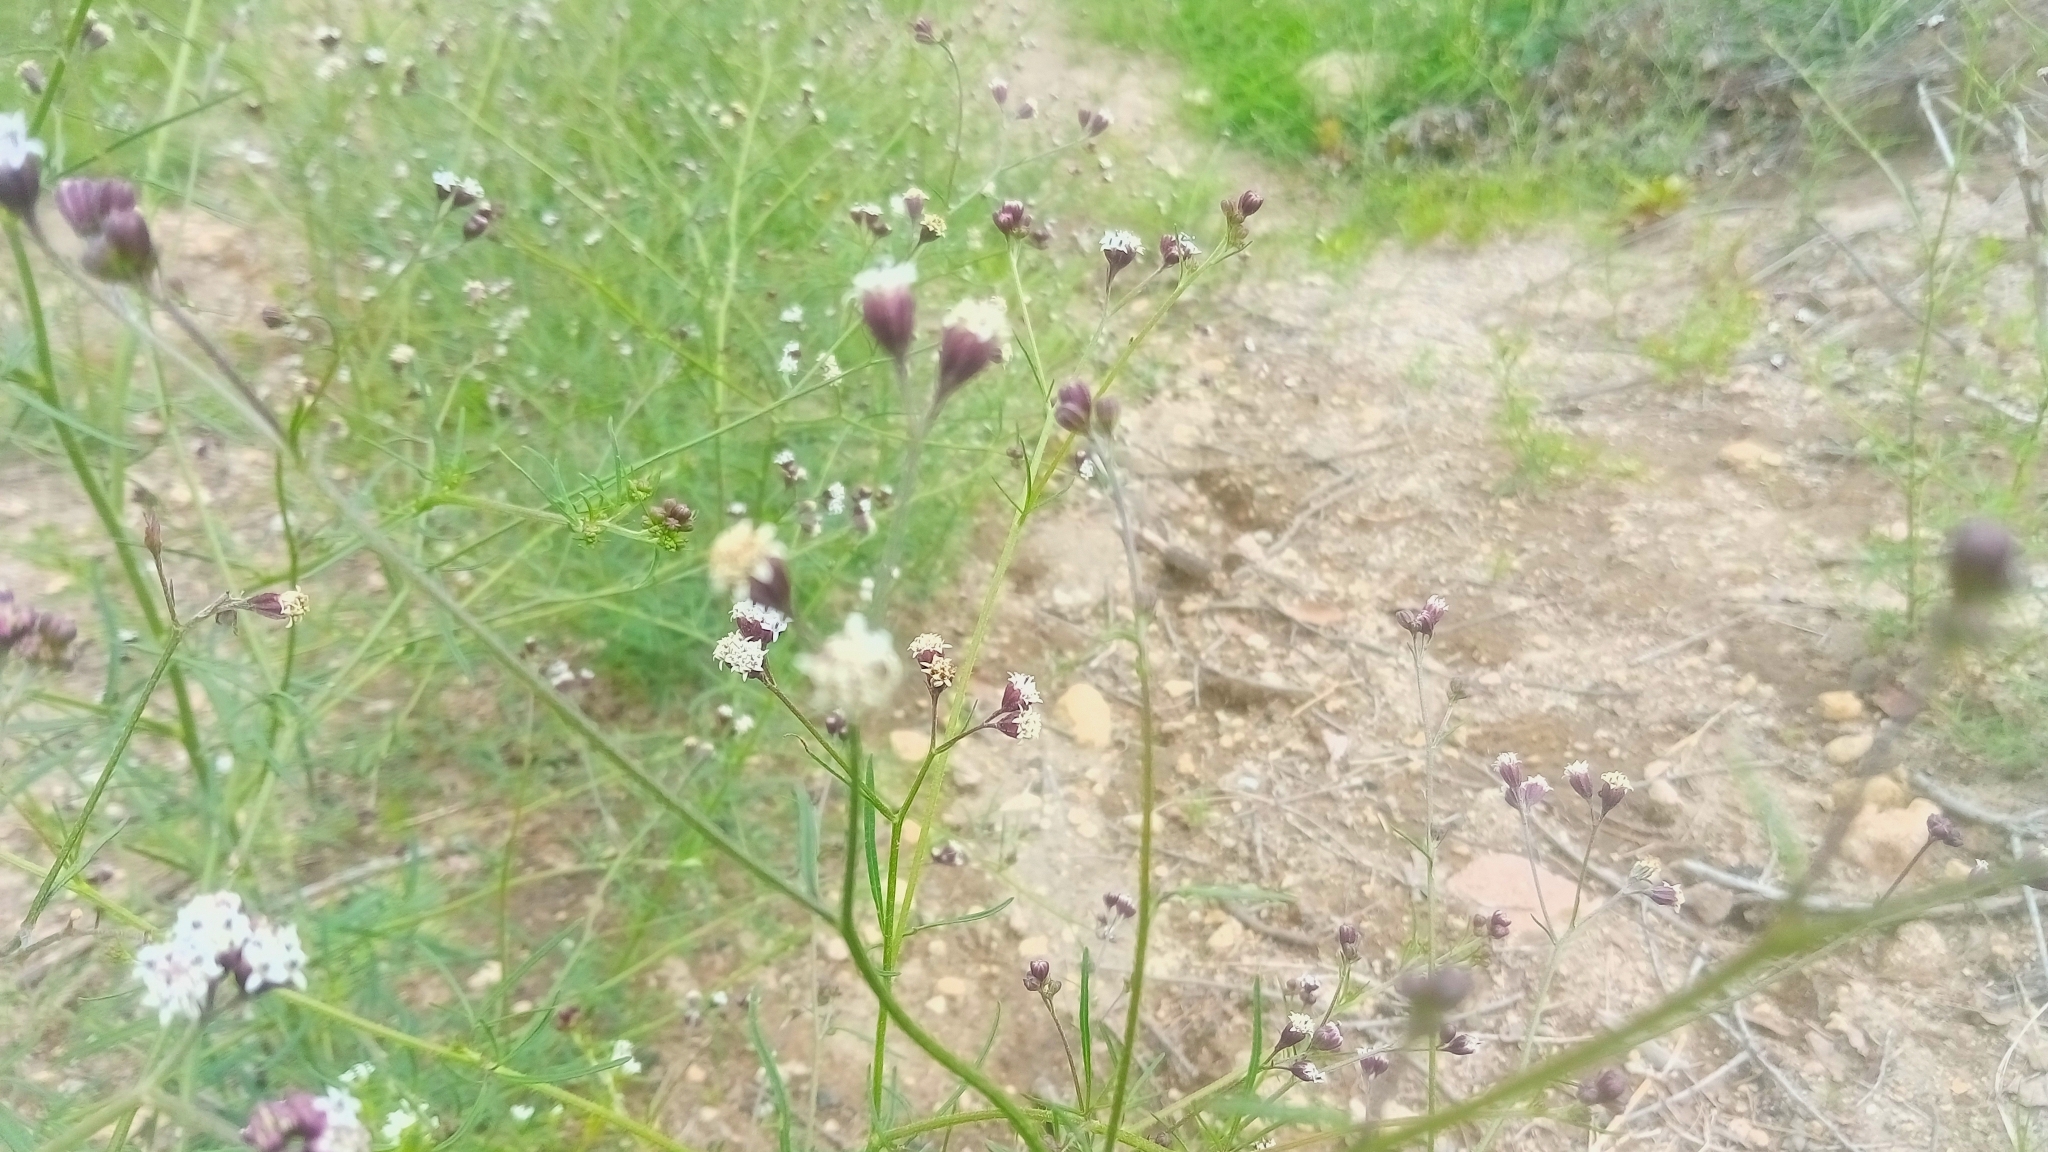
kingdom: Plantae
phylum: Tracheophyta
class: Magnoliopsida
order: Asterales
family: Asteraceae
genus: Florestina
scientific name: Florestina pedata
